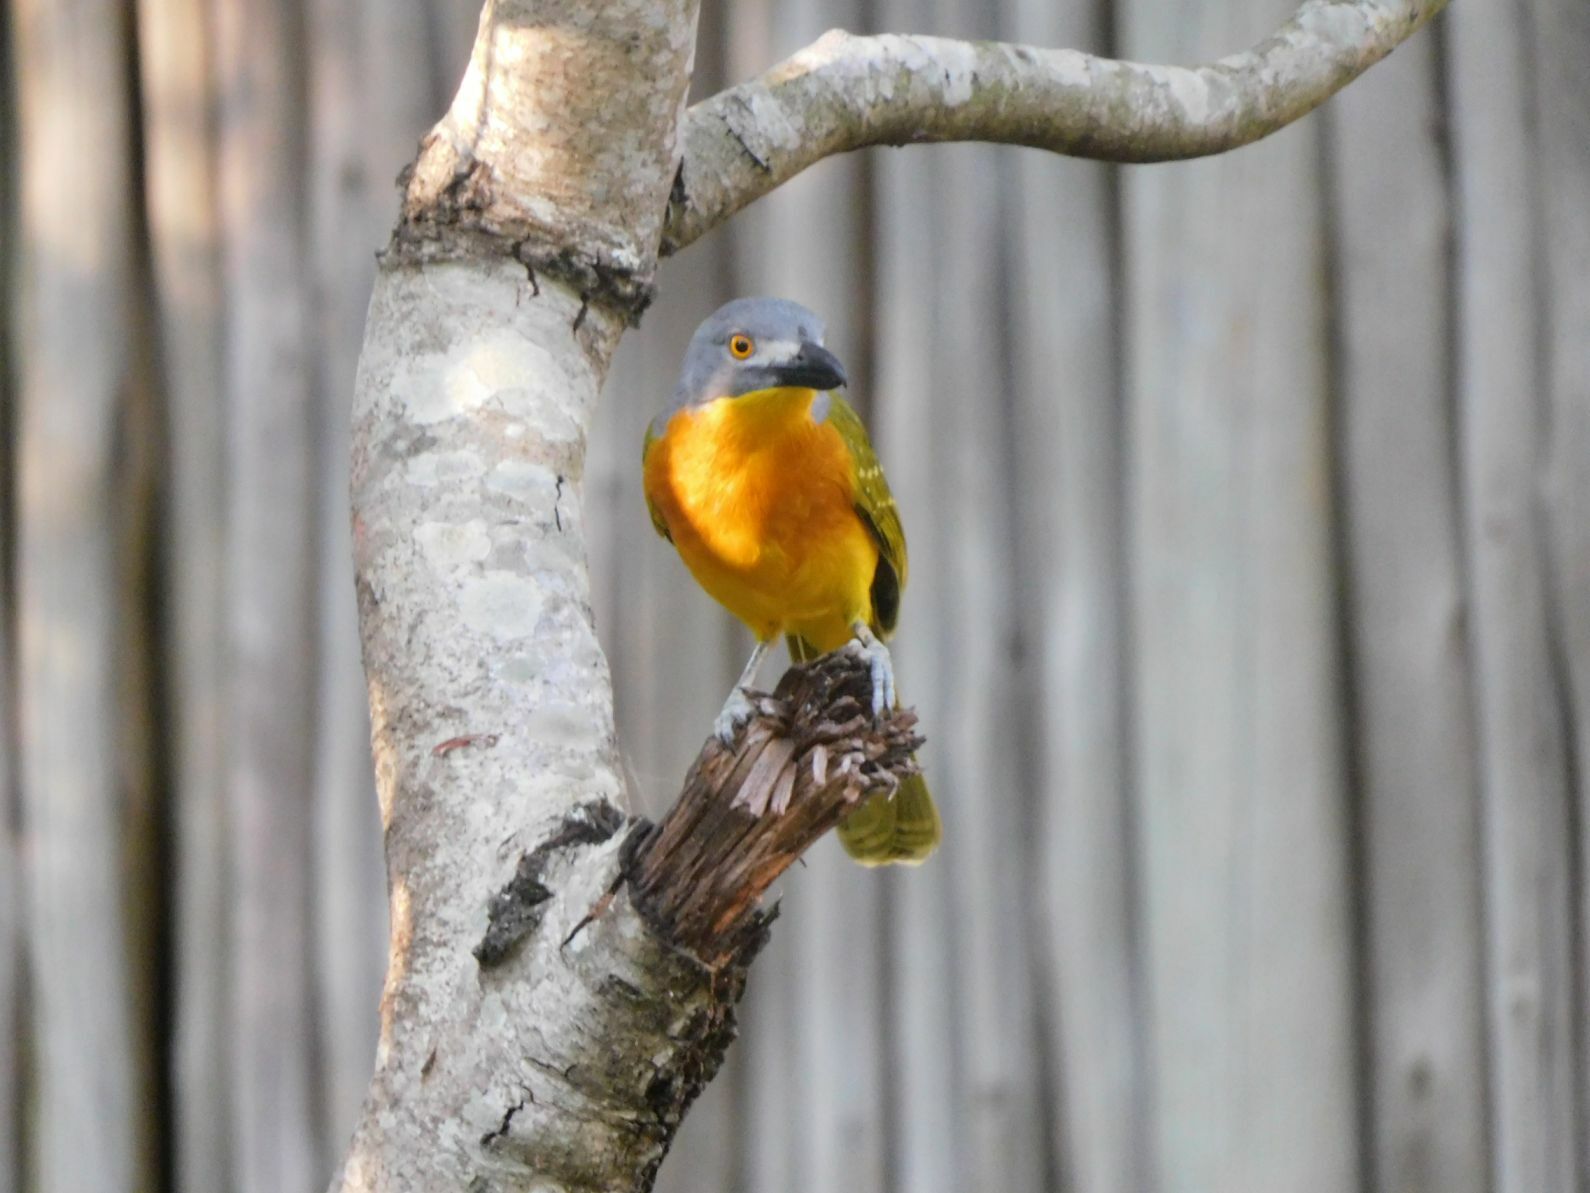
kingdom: Animalia
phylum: Chordata
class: Aves
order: Passeriformes
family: Malaconotidae
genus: Malaconotus
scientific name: Malaconotus blanchoti
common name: Grey-headed bushshrike
